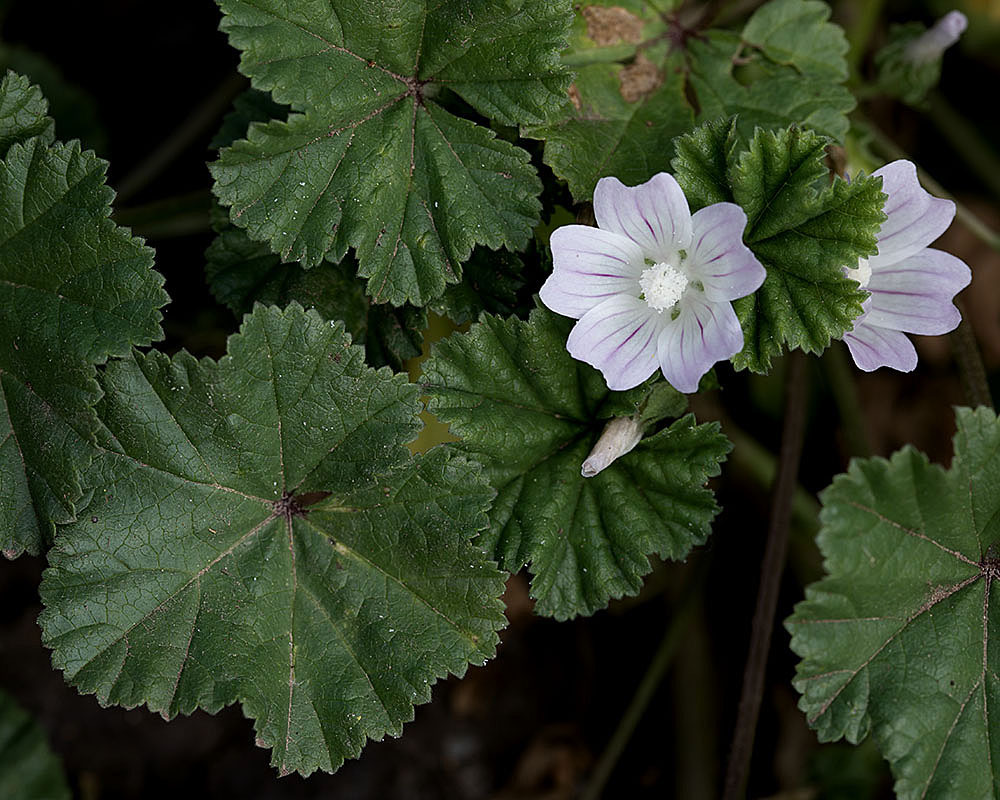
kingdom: Plantae
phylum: Tracheophyta
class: Magnoliopsida
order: Malvales
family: Malvaceae
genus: Malva
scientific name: Malva neglecta
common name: Common mallow
